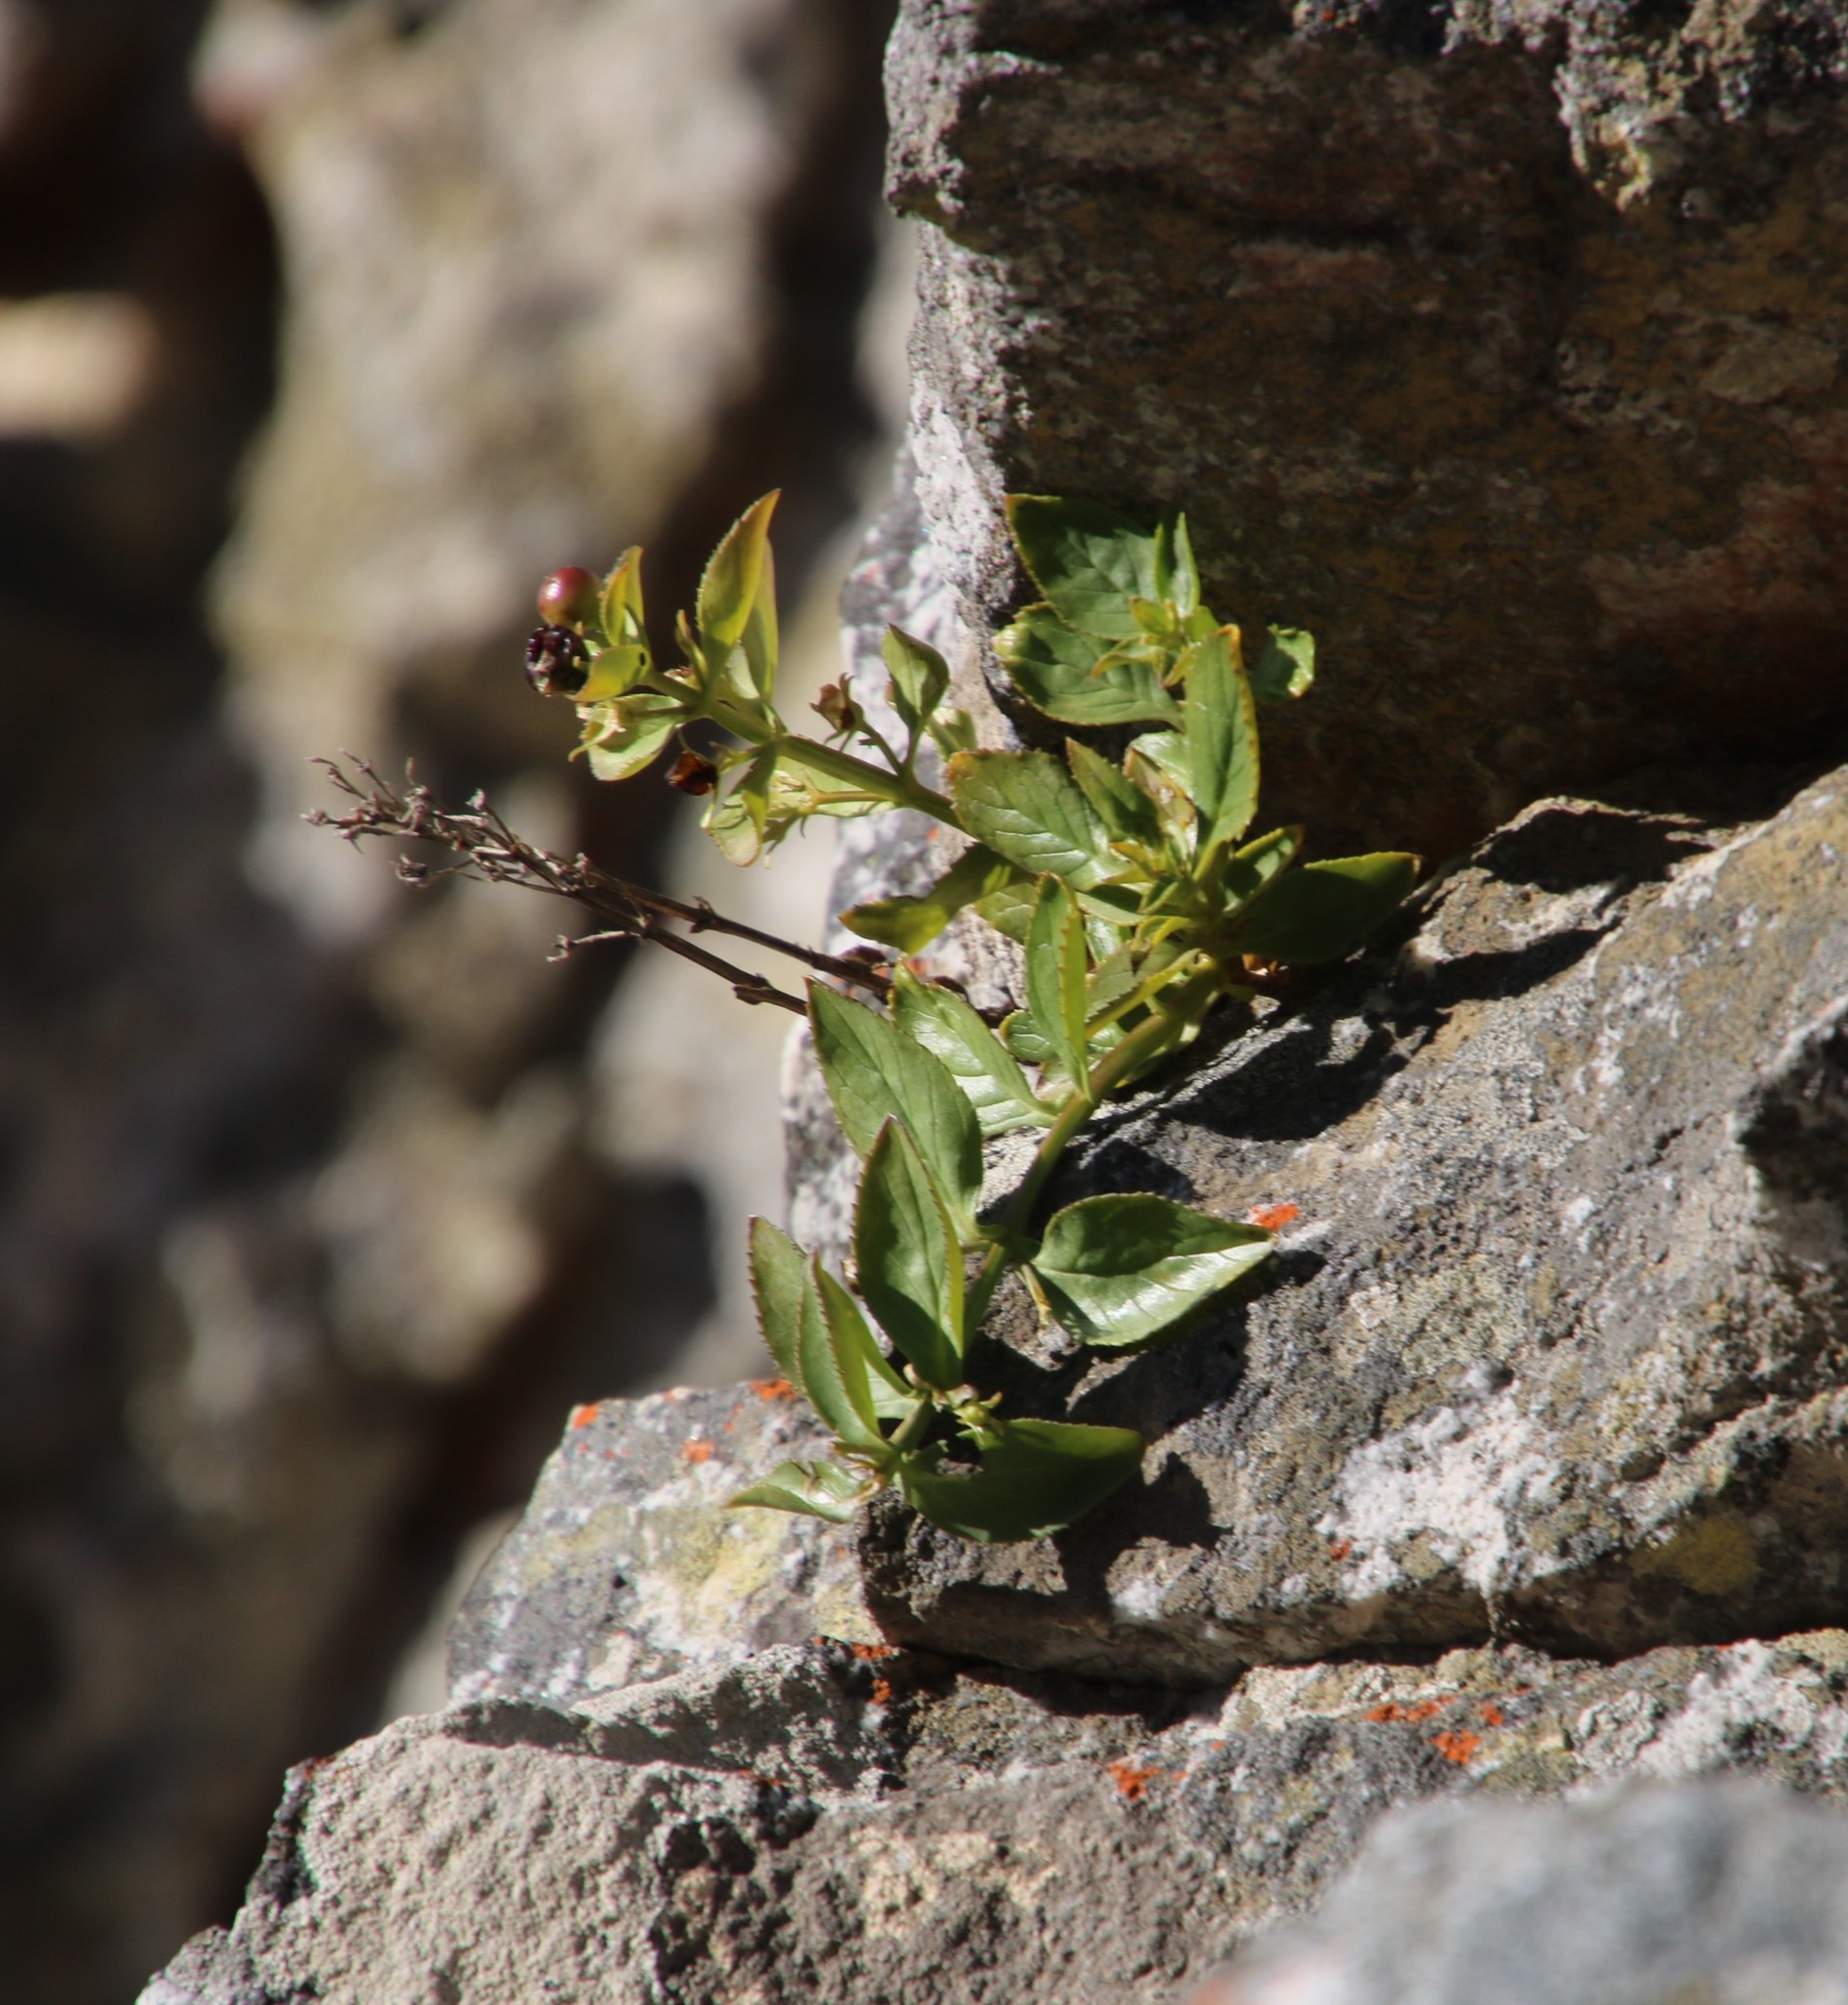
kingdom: Plantae
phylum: Tracheophyta
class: Magnoliopsida
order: Lamiales
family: Scrophulariaceae
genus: Teedia
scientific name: Teedia lucida
